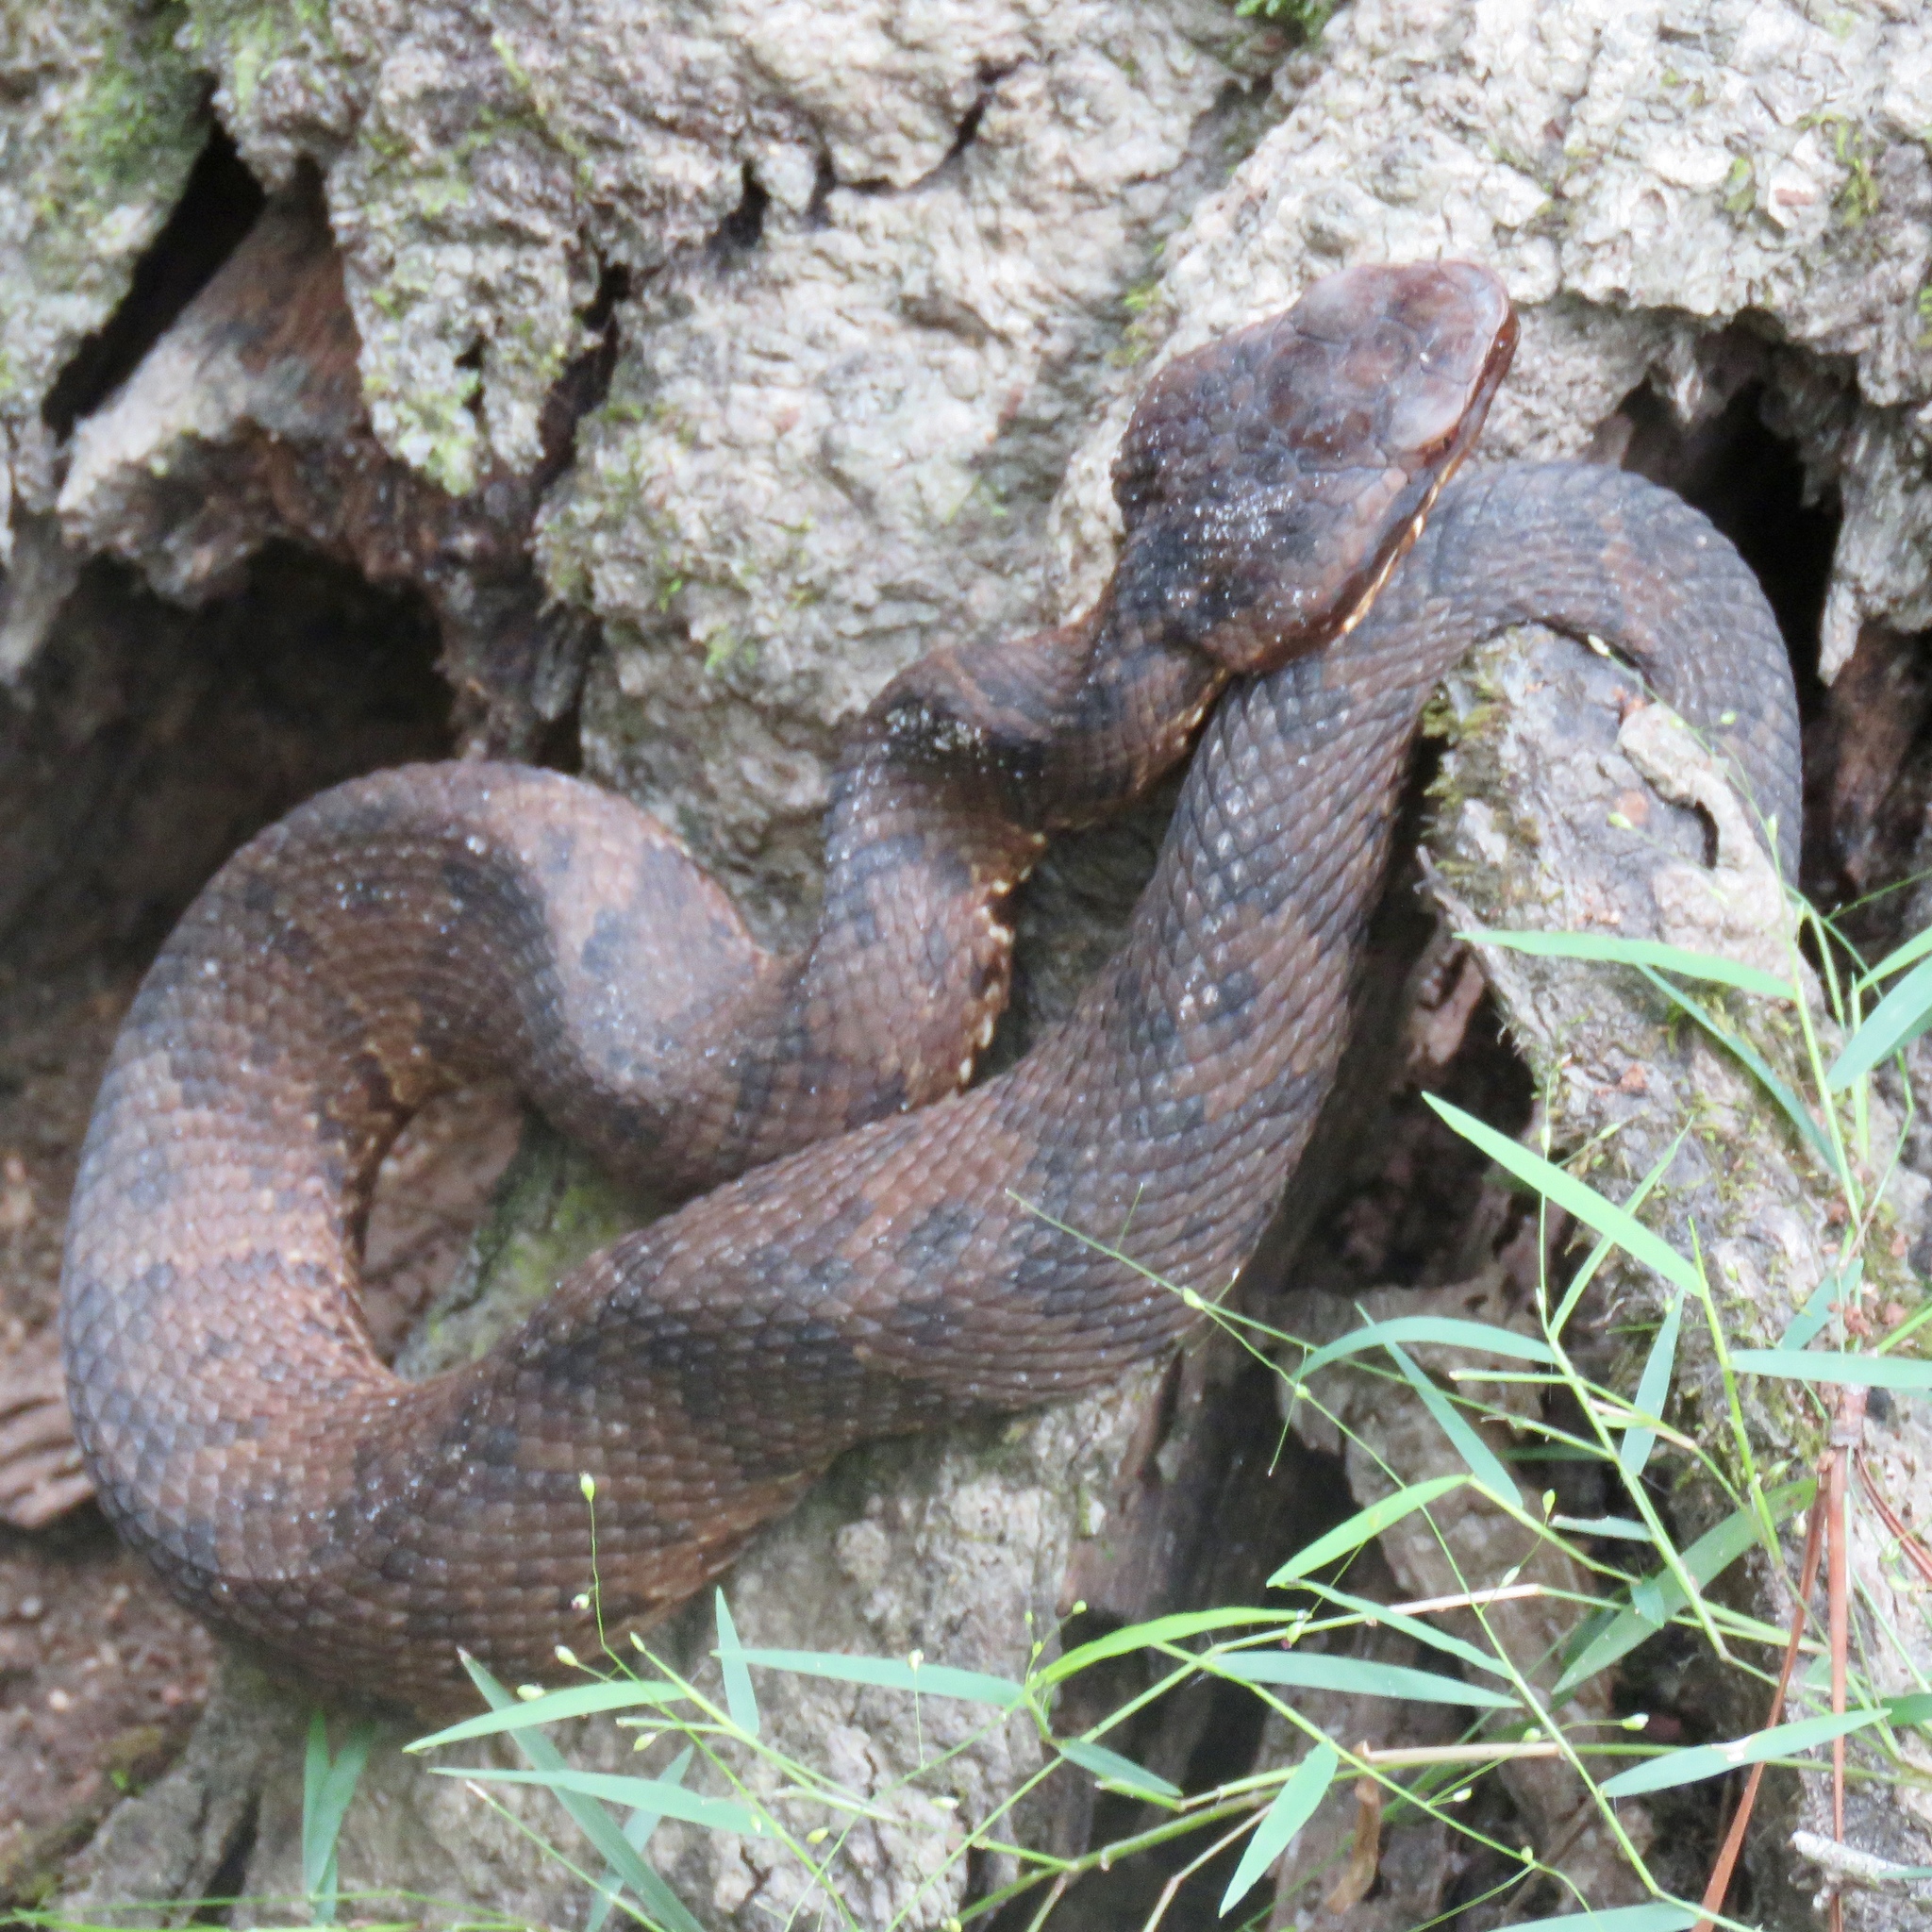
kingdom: Animalia
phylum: Chordata
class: Squamata
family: Viperidae
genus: Agkistrodon
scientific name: Agkistrodon piscivorus
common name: Cottonmouth
